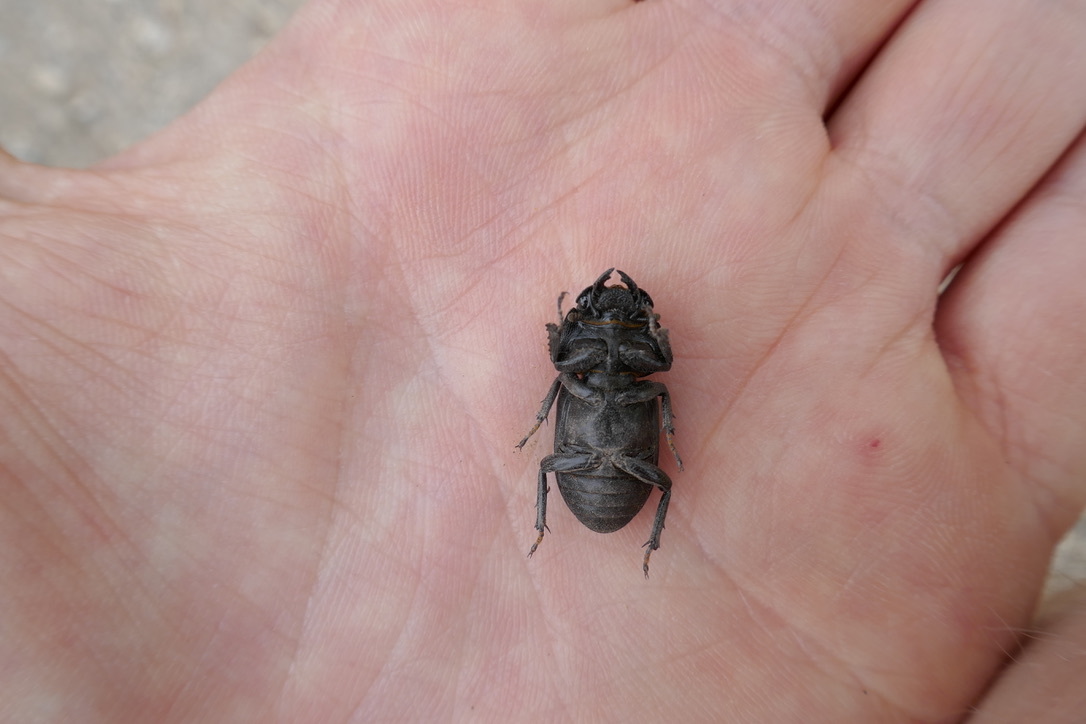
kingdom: Animalia
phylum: Arthropoda
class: Insecta
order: Coleoptera
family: Lucanidae
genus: Dorcus
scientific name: Dorcus parallelipipedus
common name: Lesser stag beetle
